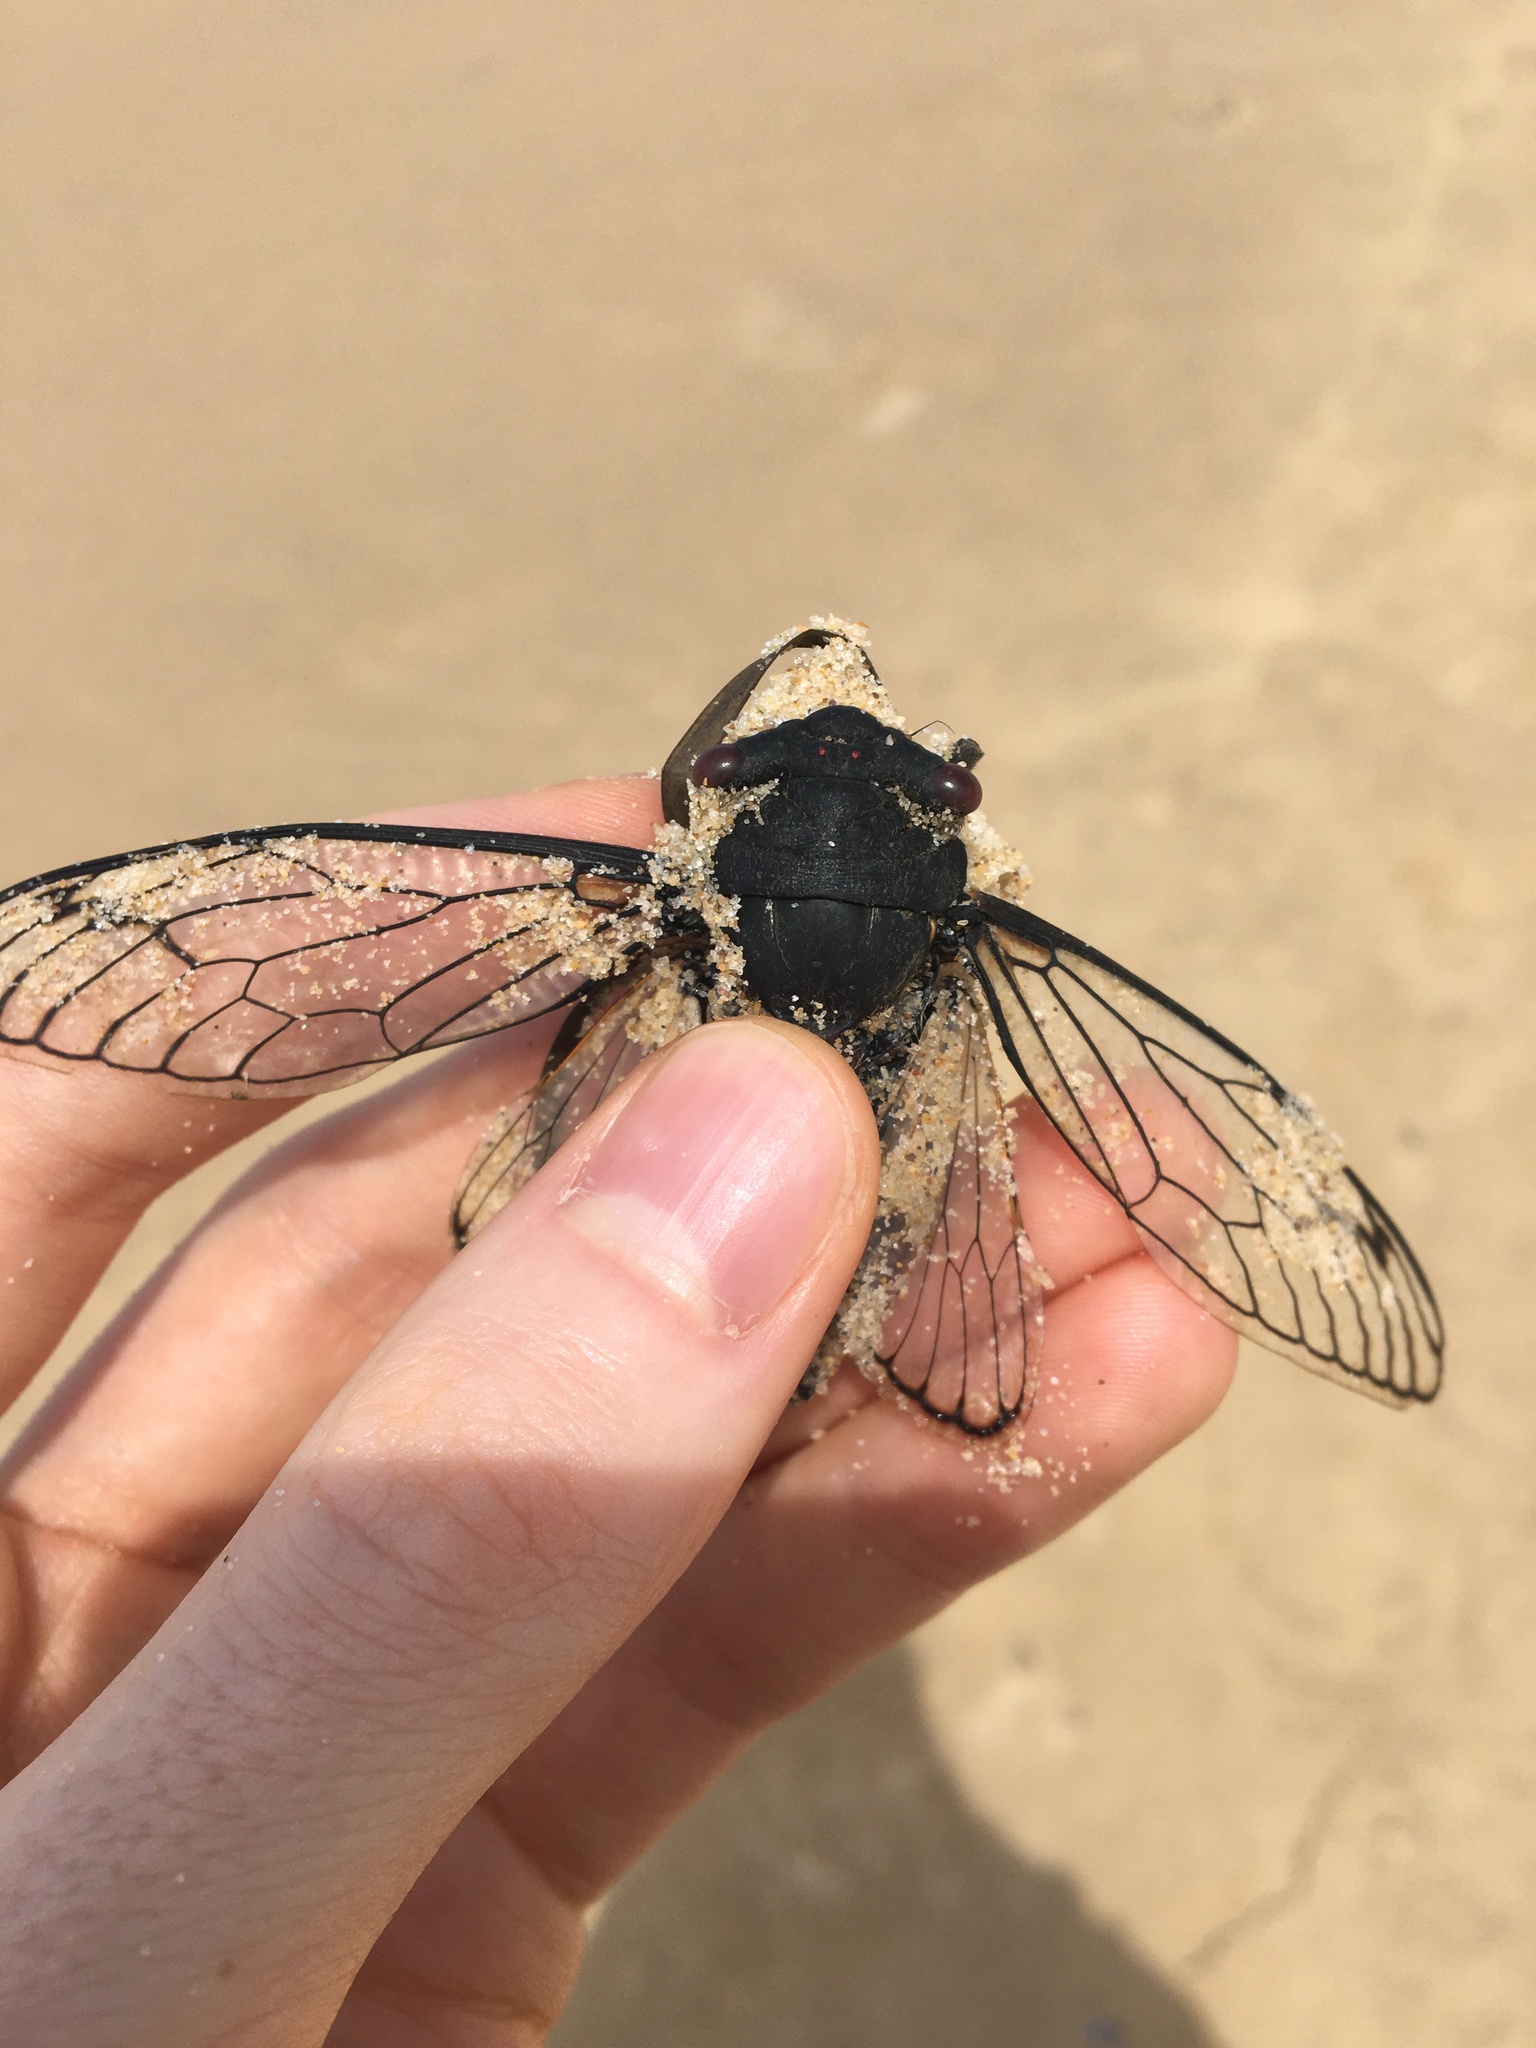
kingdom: Animalia
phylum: Arthropoda
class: Insecta
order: Hemiptera
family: Cicadidae
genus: Psaltoda
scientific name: Psaltoda moerens
